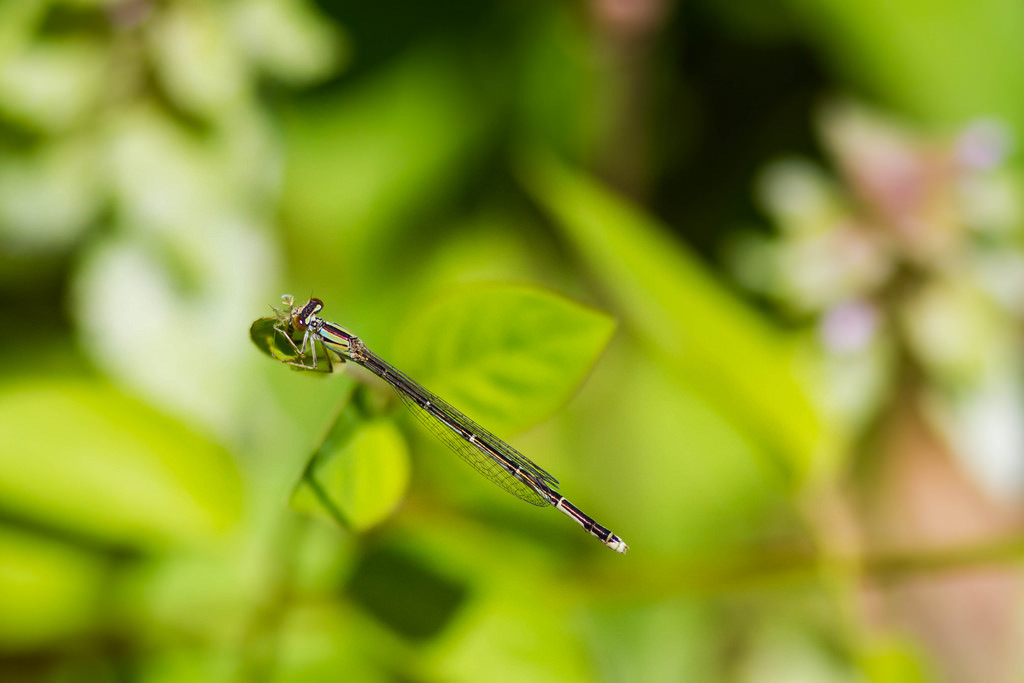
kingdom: Animalia
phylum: Arthropoda
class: Insecta
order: Odonata
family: Coenagrionidae
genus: Enallagma
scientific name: Enallagma signatum
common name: Orange bluet
